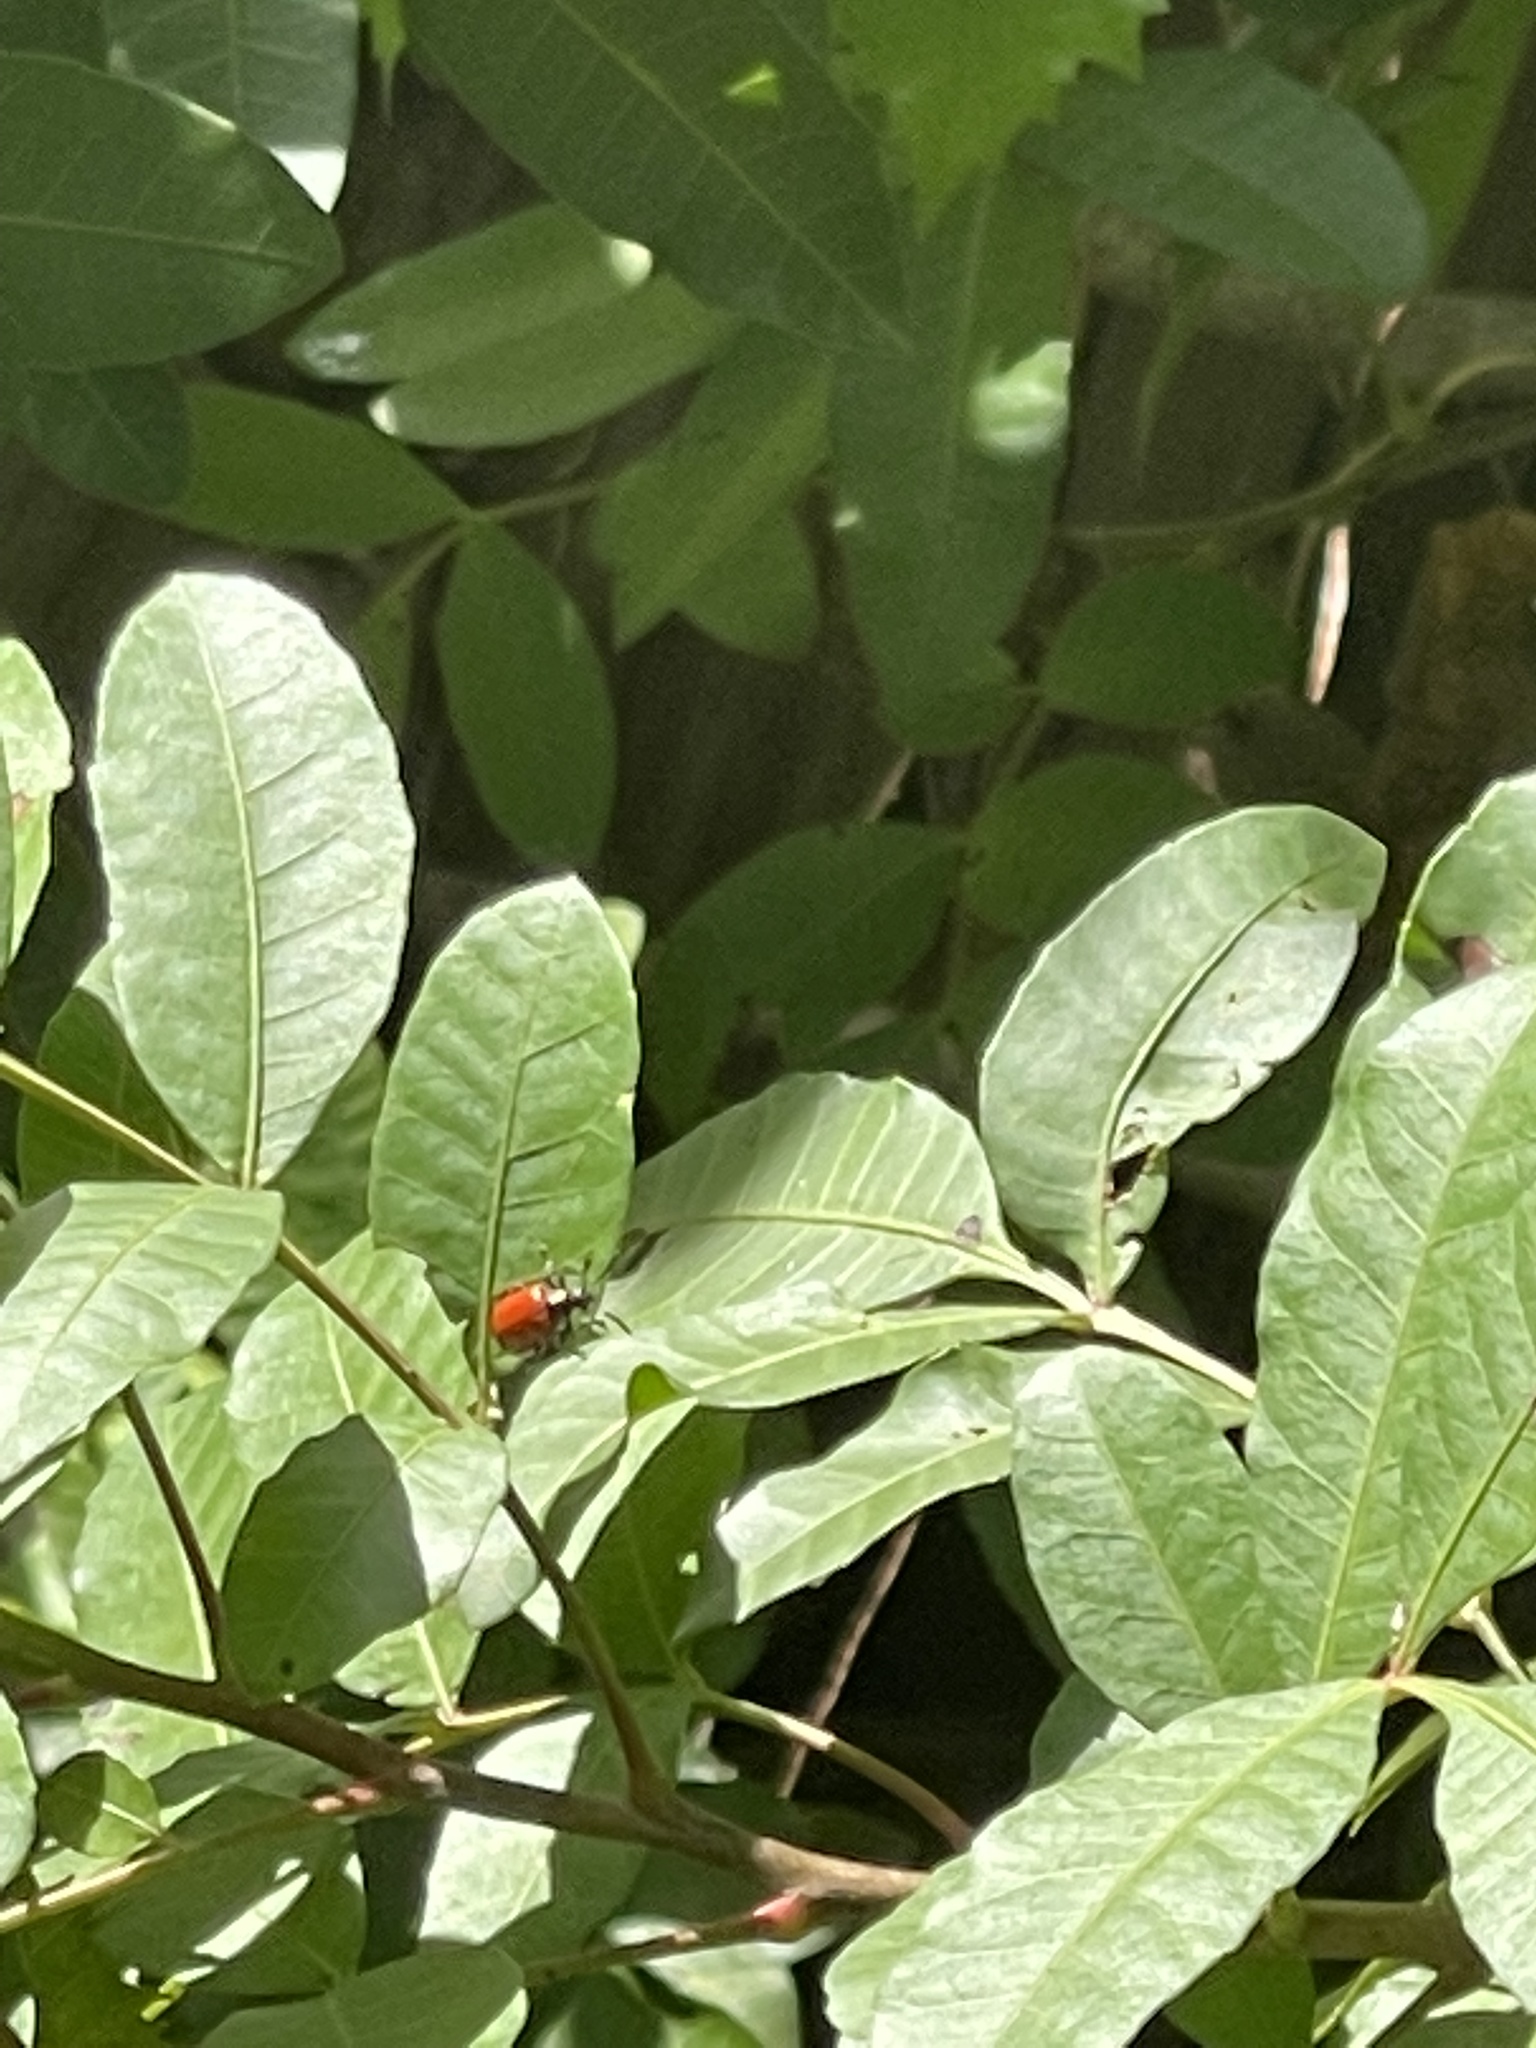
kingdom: Animalia
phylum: Arthropoda
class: Insecta
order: Coleoptera
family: Chrysomelidae
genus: Lilioceris
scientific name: Lilioceris cheni
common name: Leaf beetle
